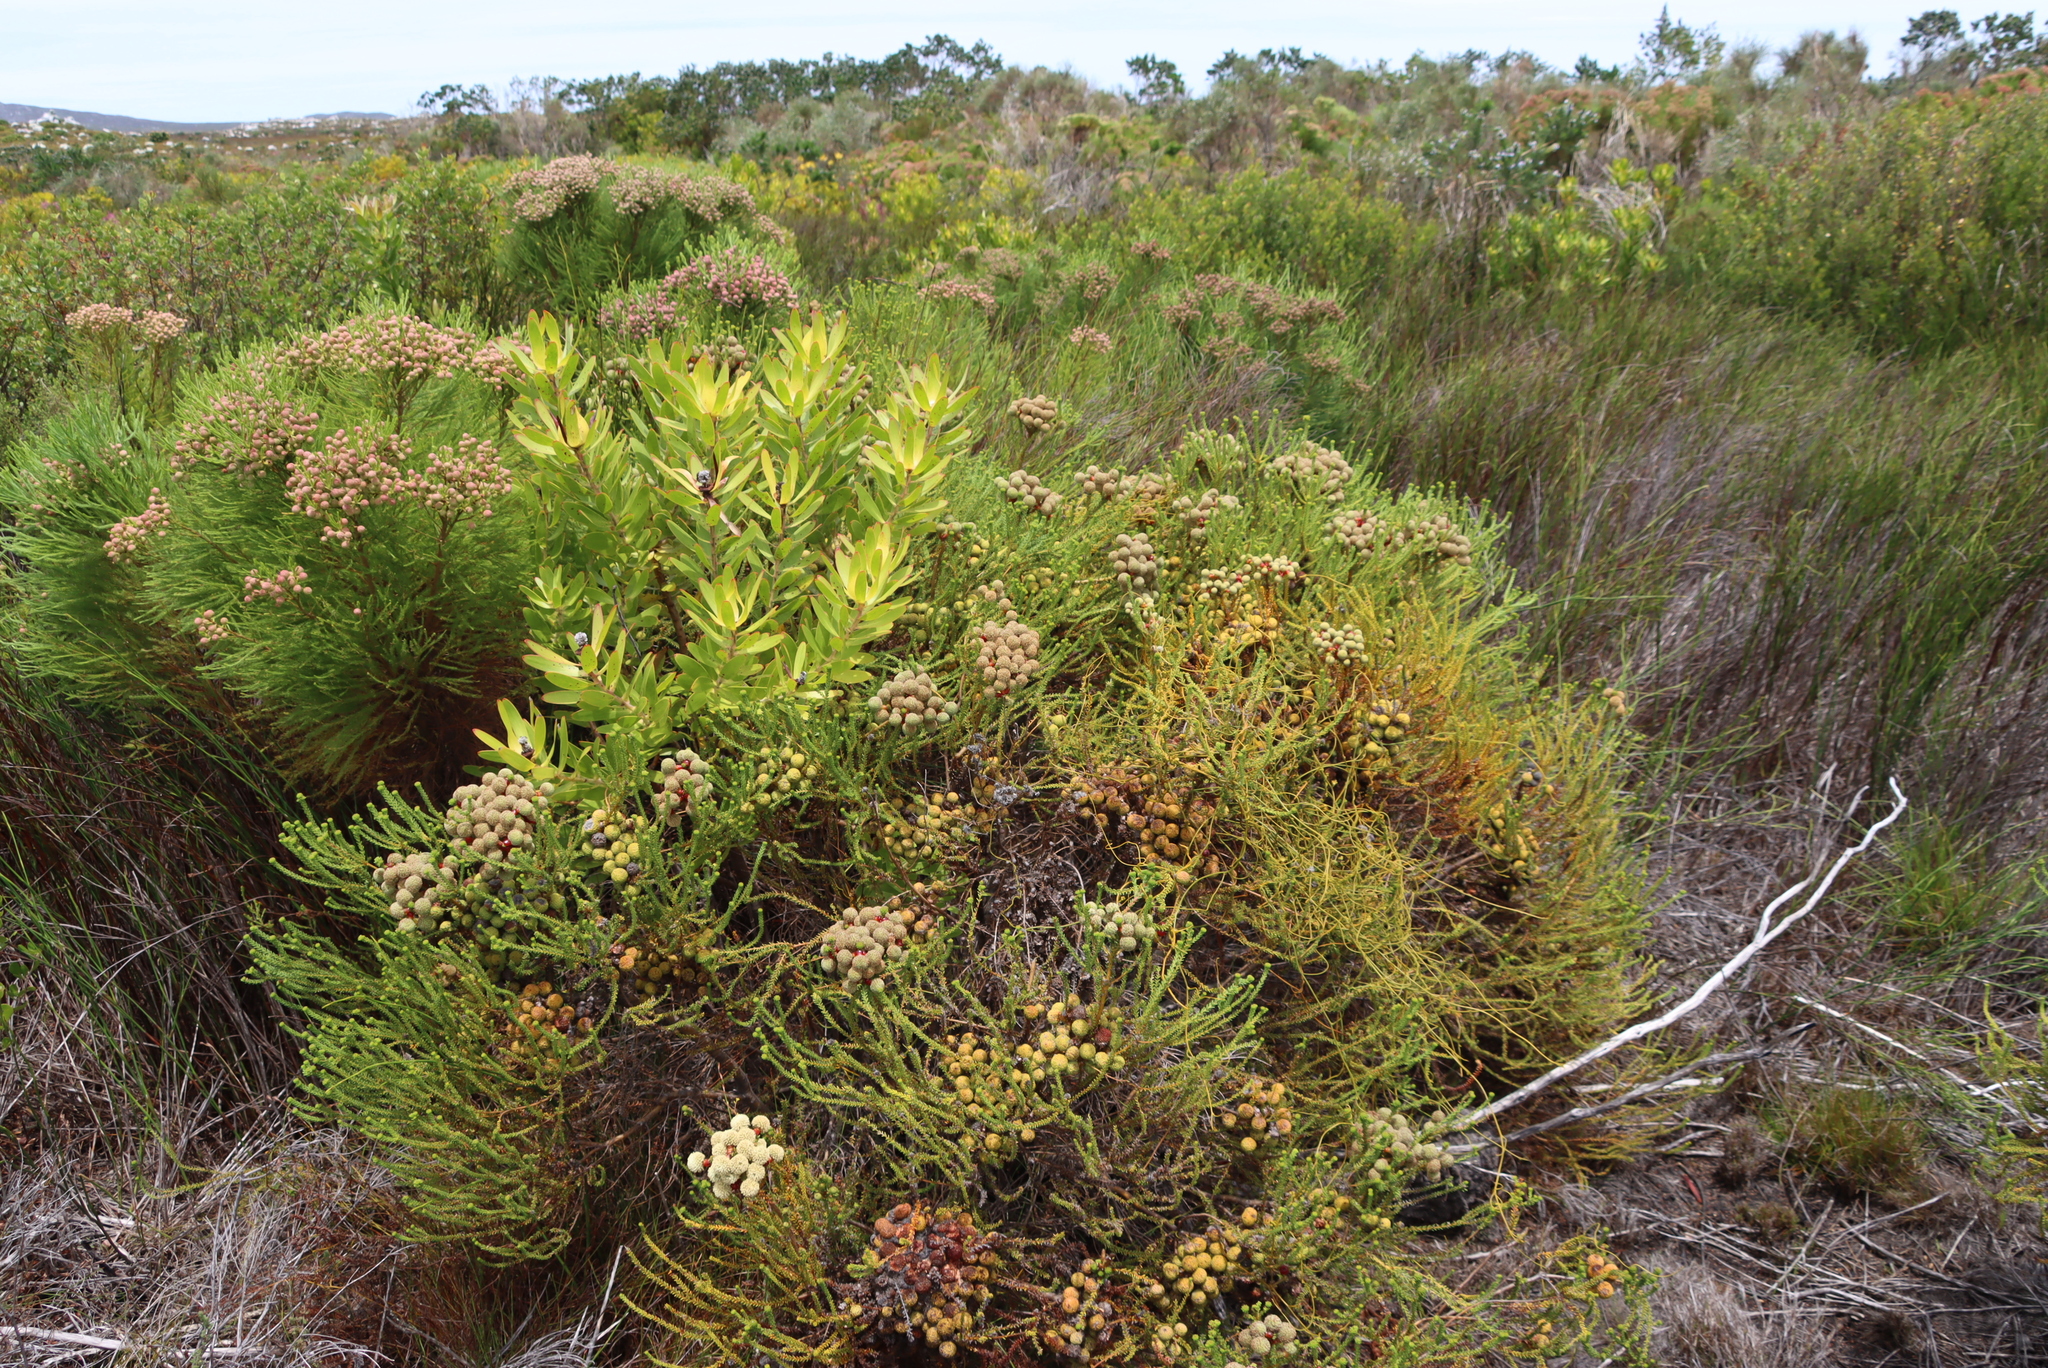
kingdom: Plantae
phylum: Tracheophyta
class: Magnoliopsida
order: Bruniales
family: Bruniaceae
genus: Berzelia
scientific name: Berzelia abrotanoides
